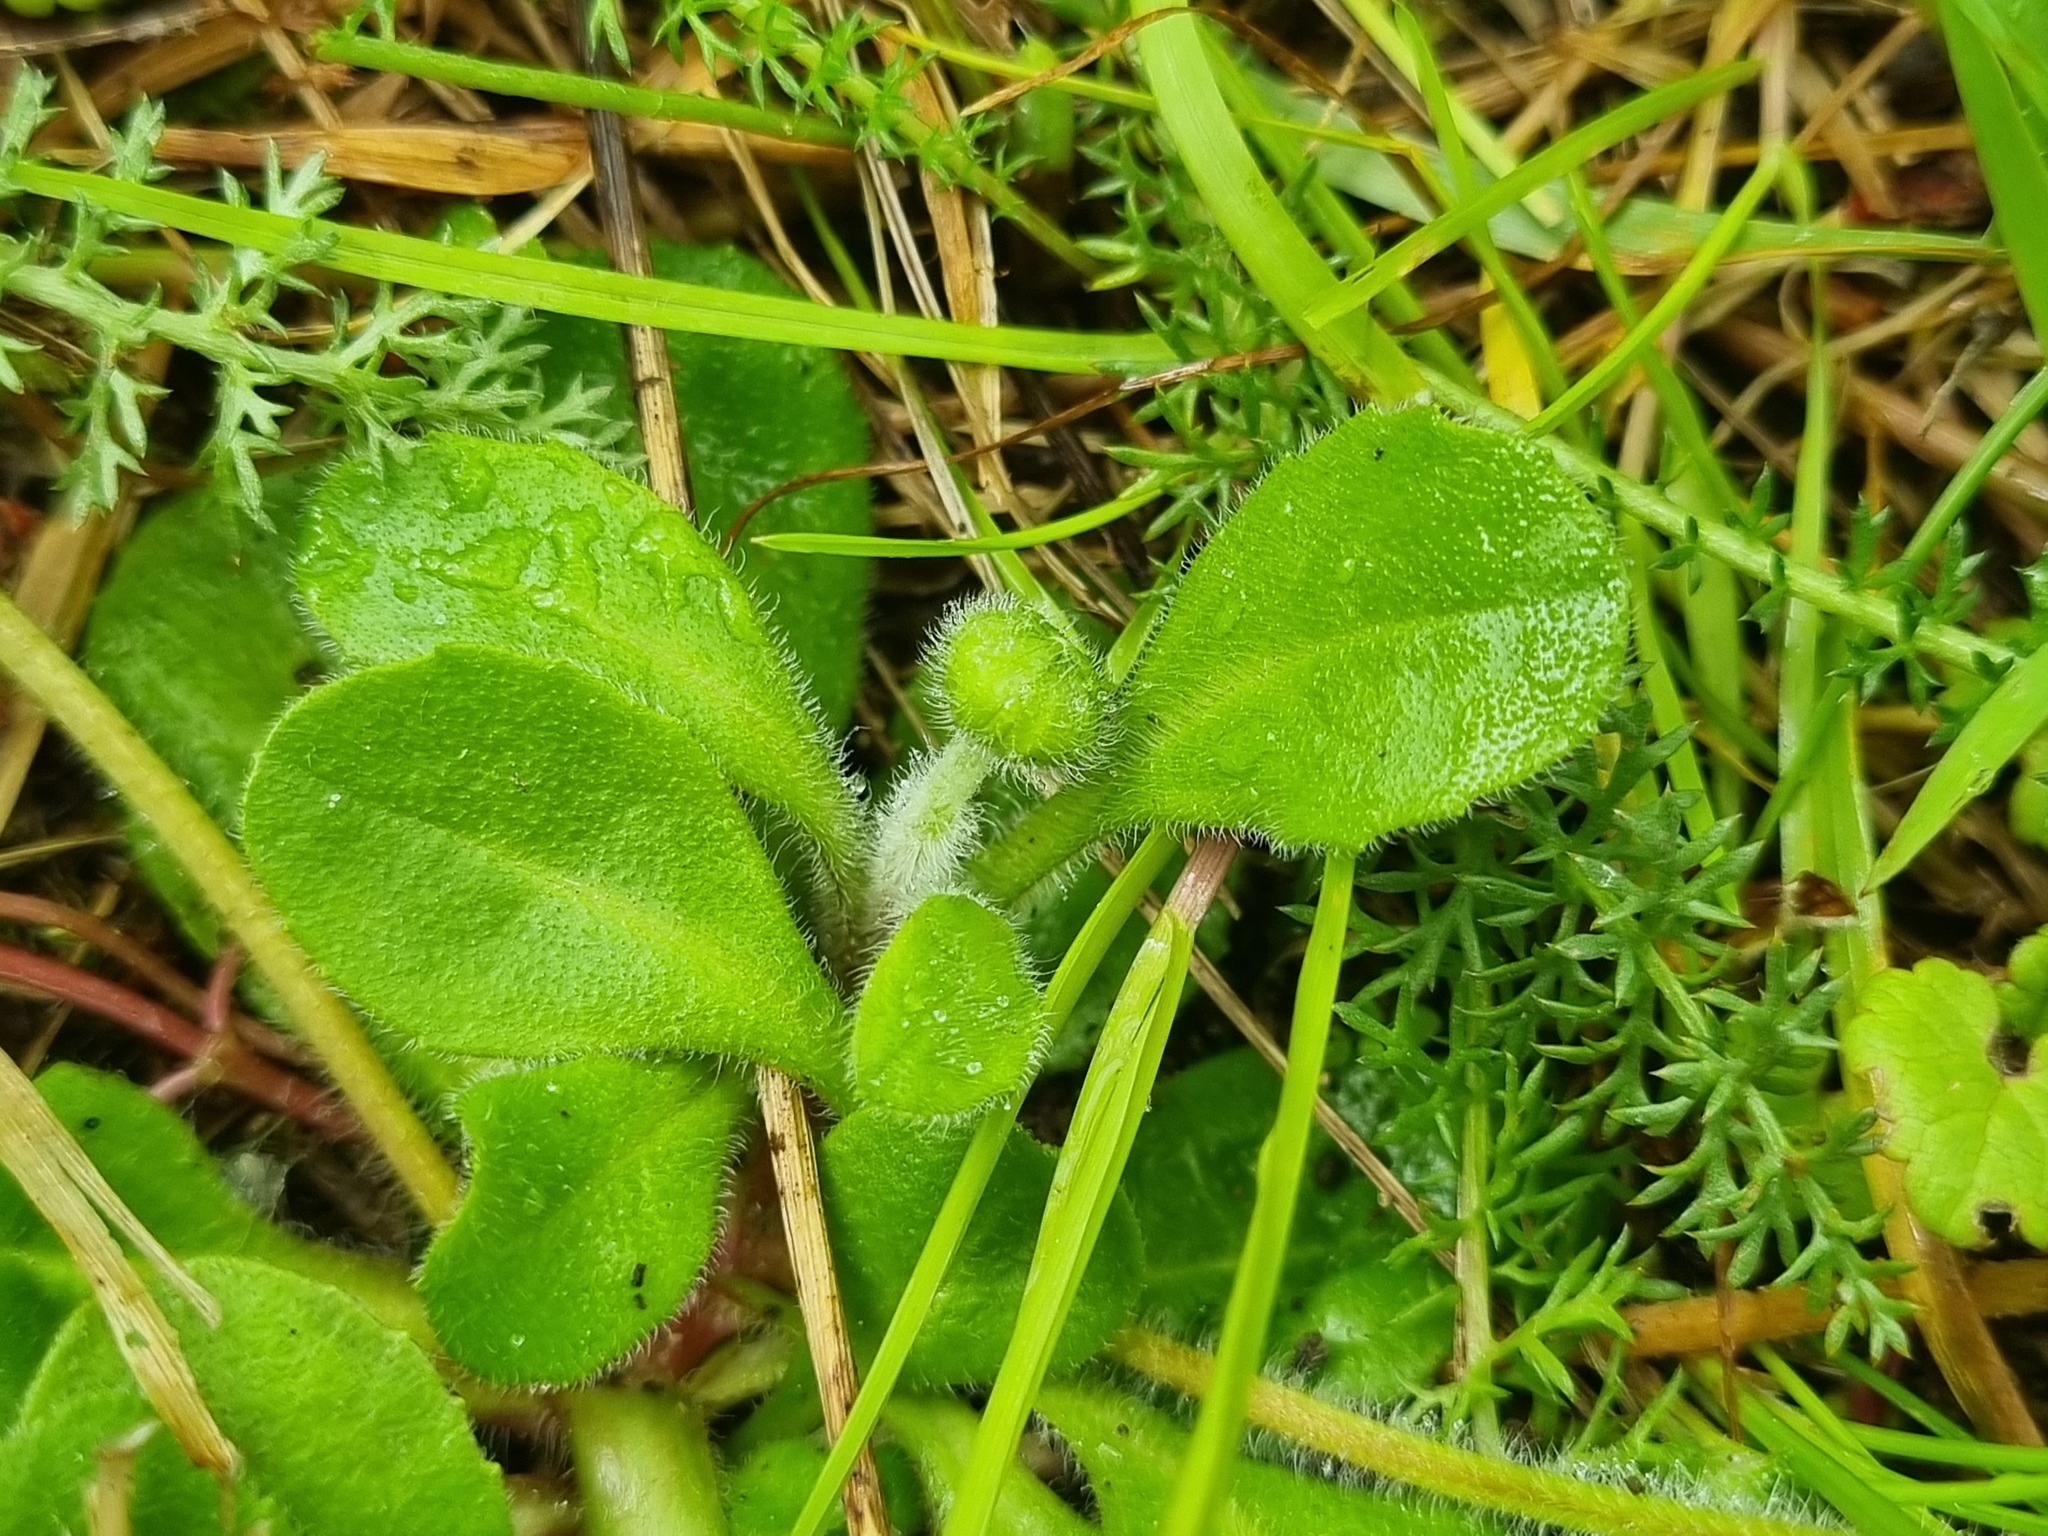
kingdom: Plantae
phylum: Tracheophyta
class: Magnoliopsida
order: Asterales
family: Asteraceae
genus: Bellis
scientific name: Bellis perennis
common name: Lawndaisy
